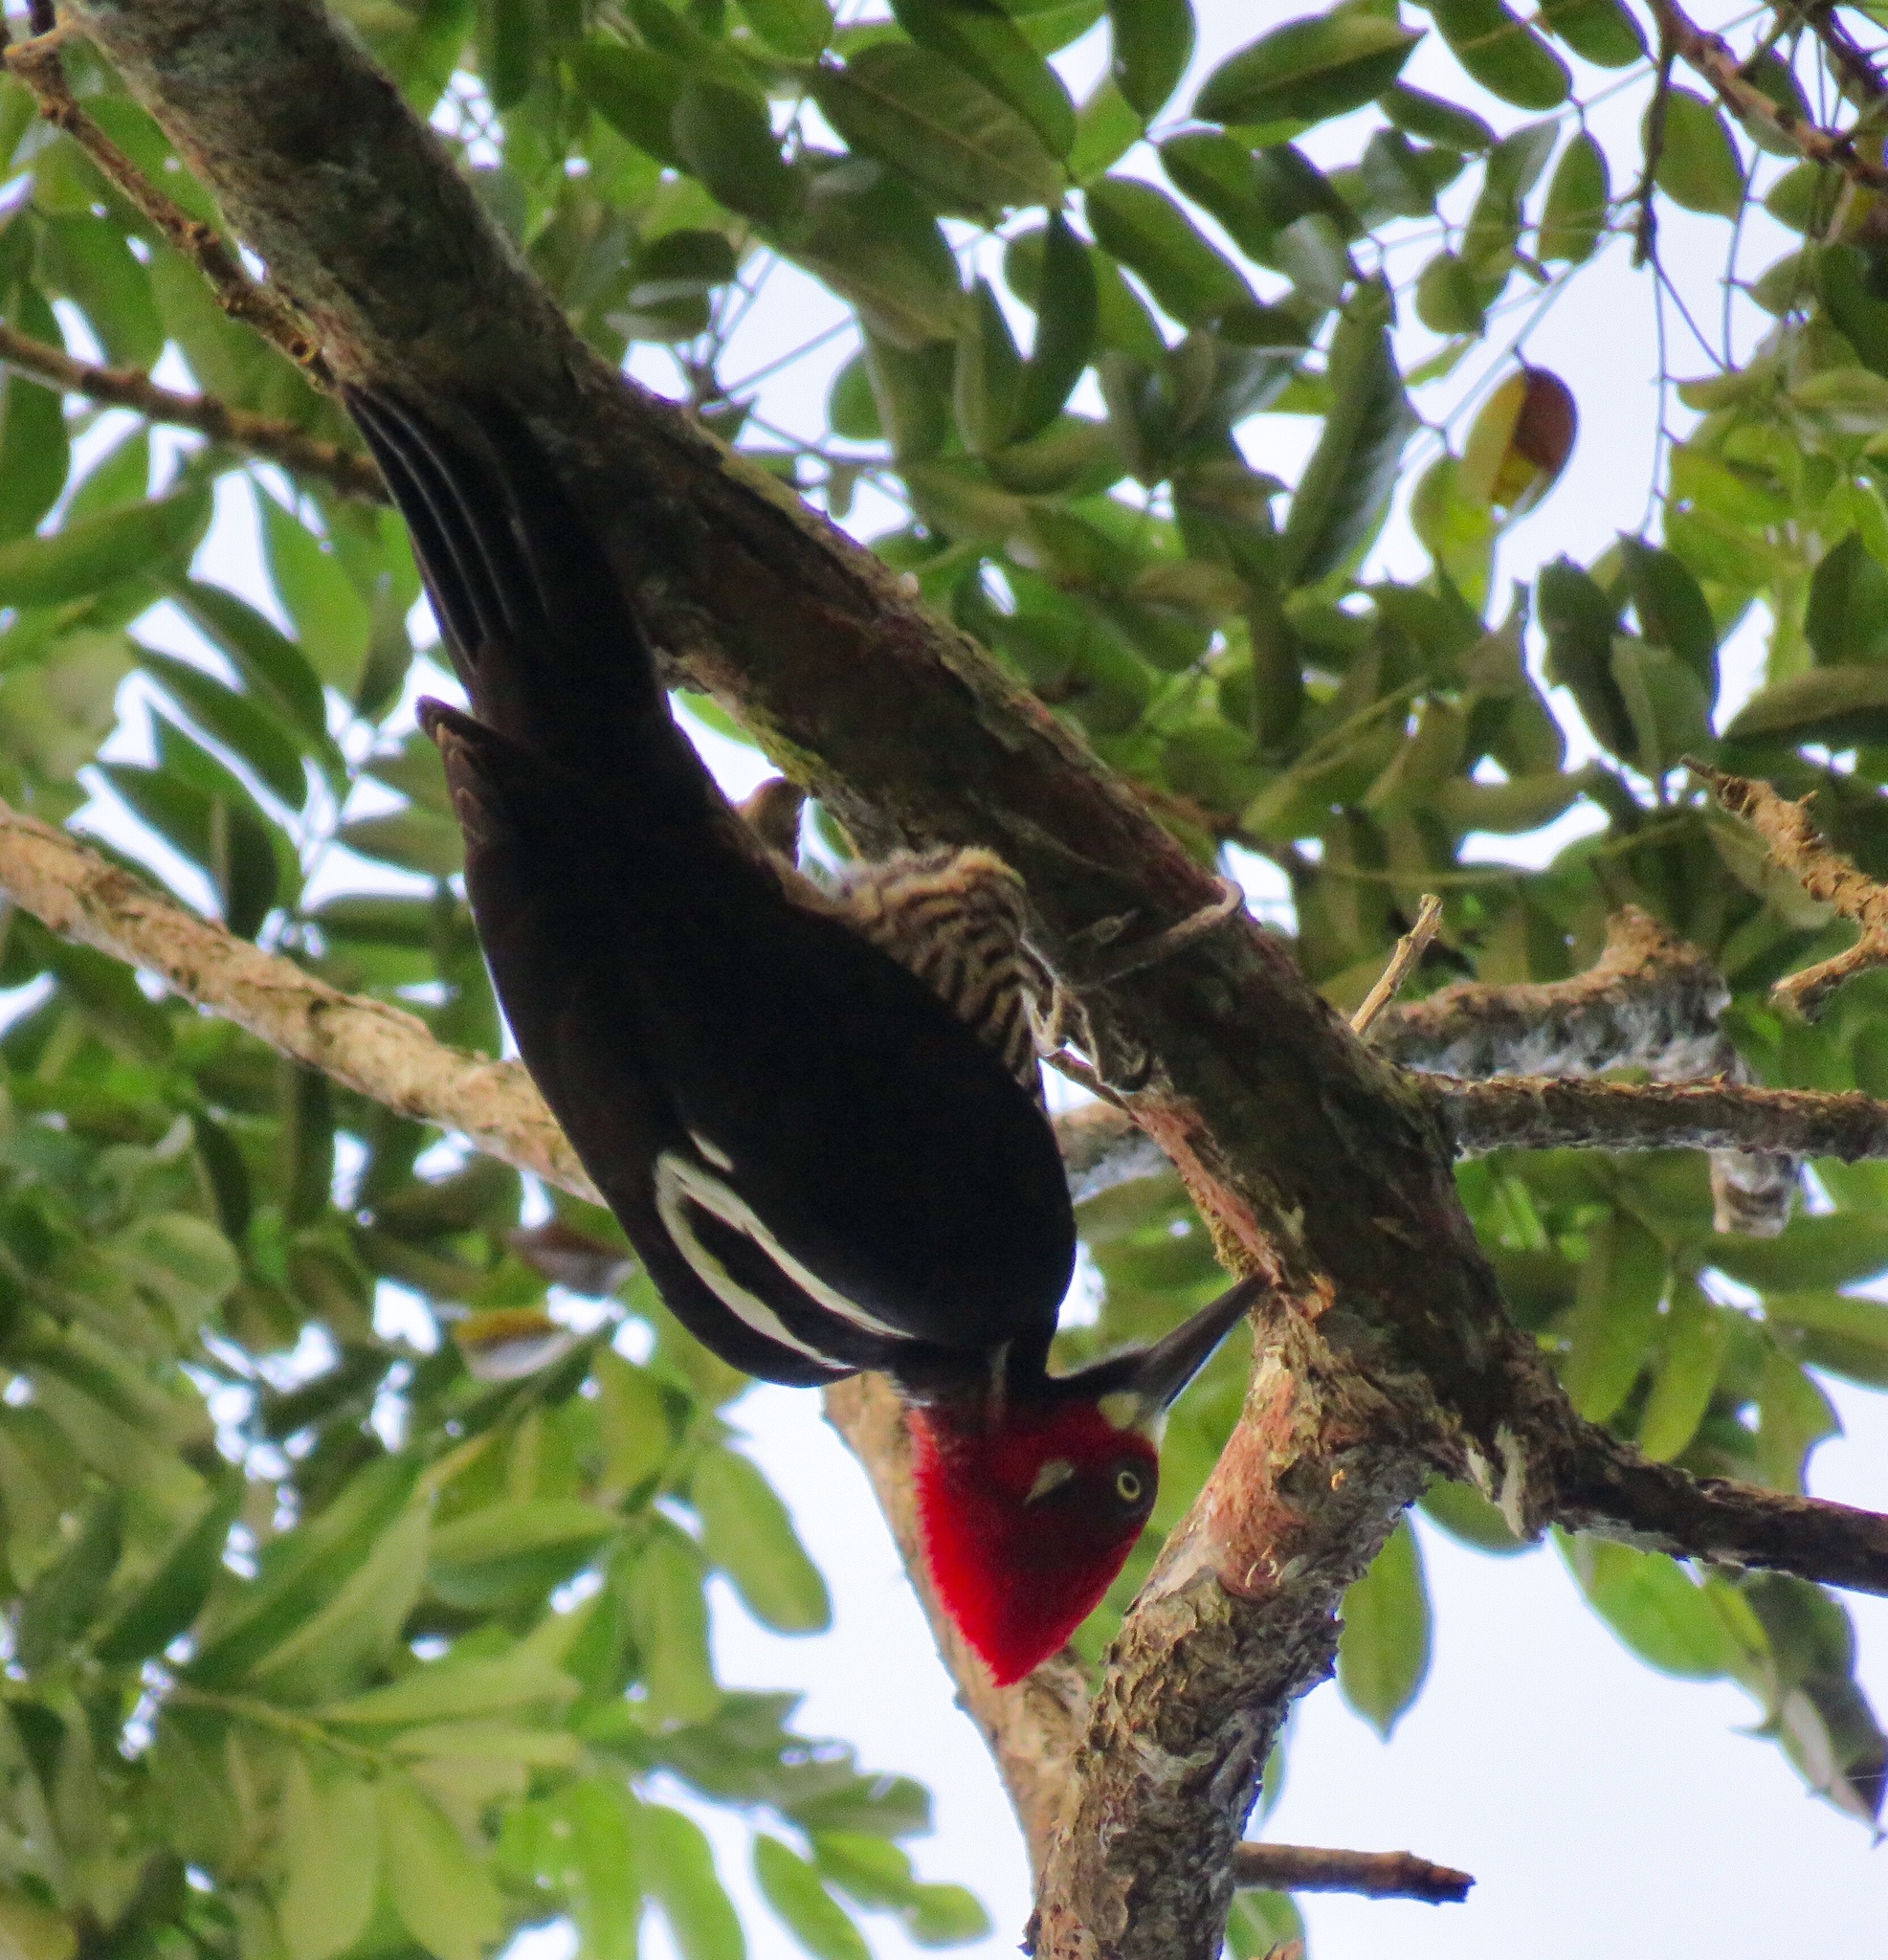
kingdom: Animalia
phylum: Chordata
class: Aves
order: Piciformes
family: Picidae
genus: Campephilus
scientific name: Campephilus melanoleucos
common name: Crimson-crested woodpecker
